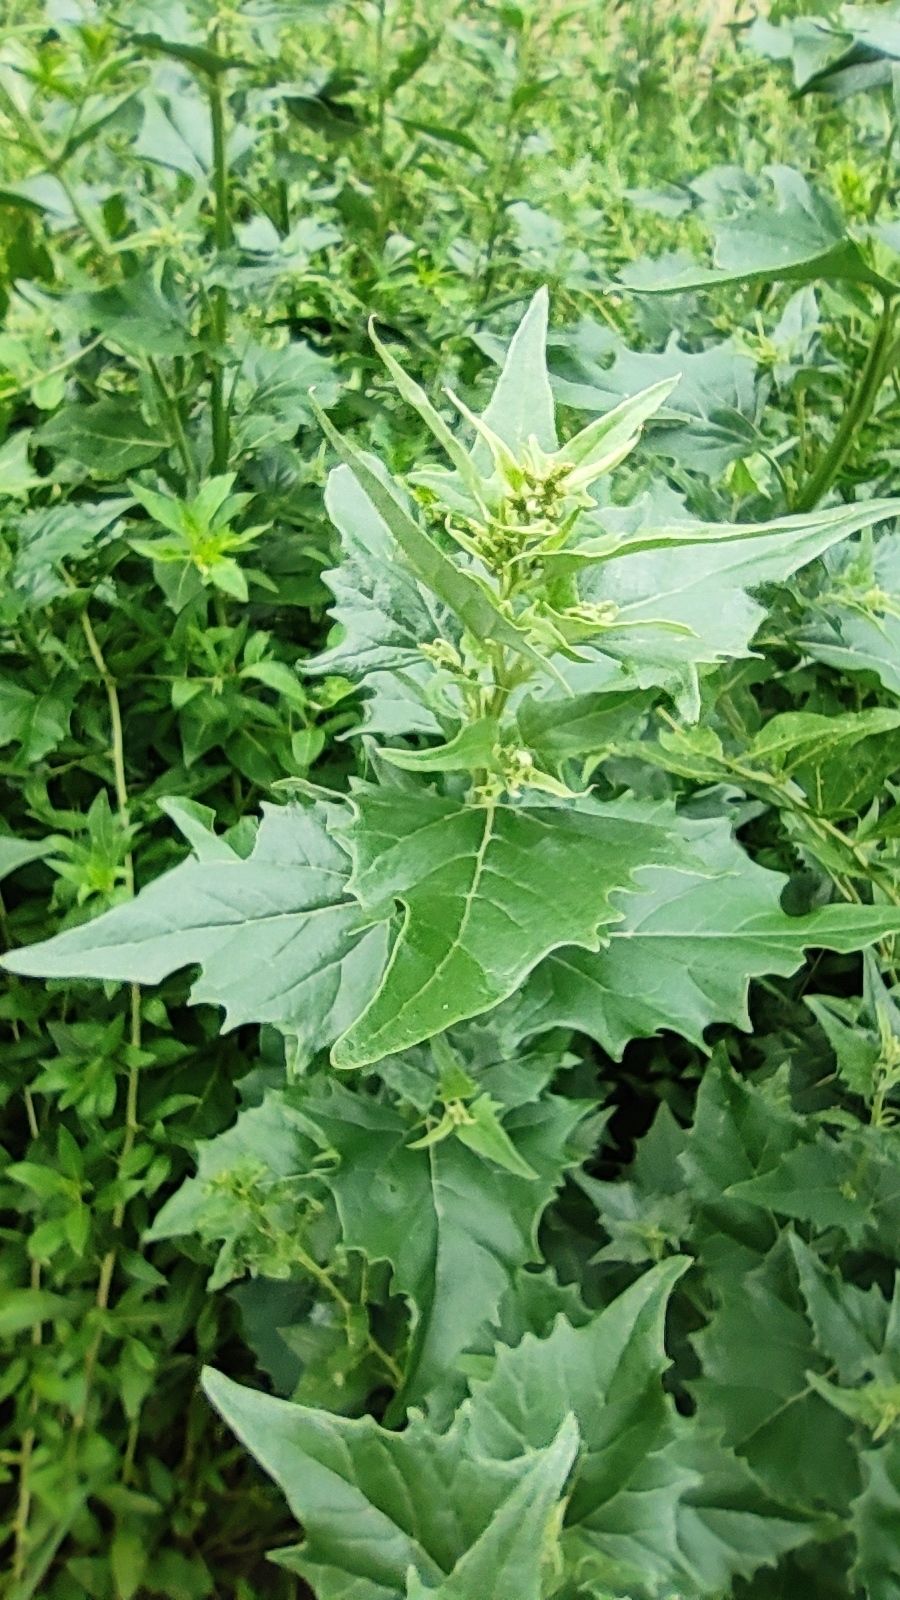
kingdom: Plantae
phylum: Tracheophyta
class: Magnoliopsida
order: Caryophyllales
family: Amaranthaceae
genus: Atriplex
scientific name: Atriplex sagittata
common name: Purple orache
